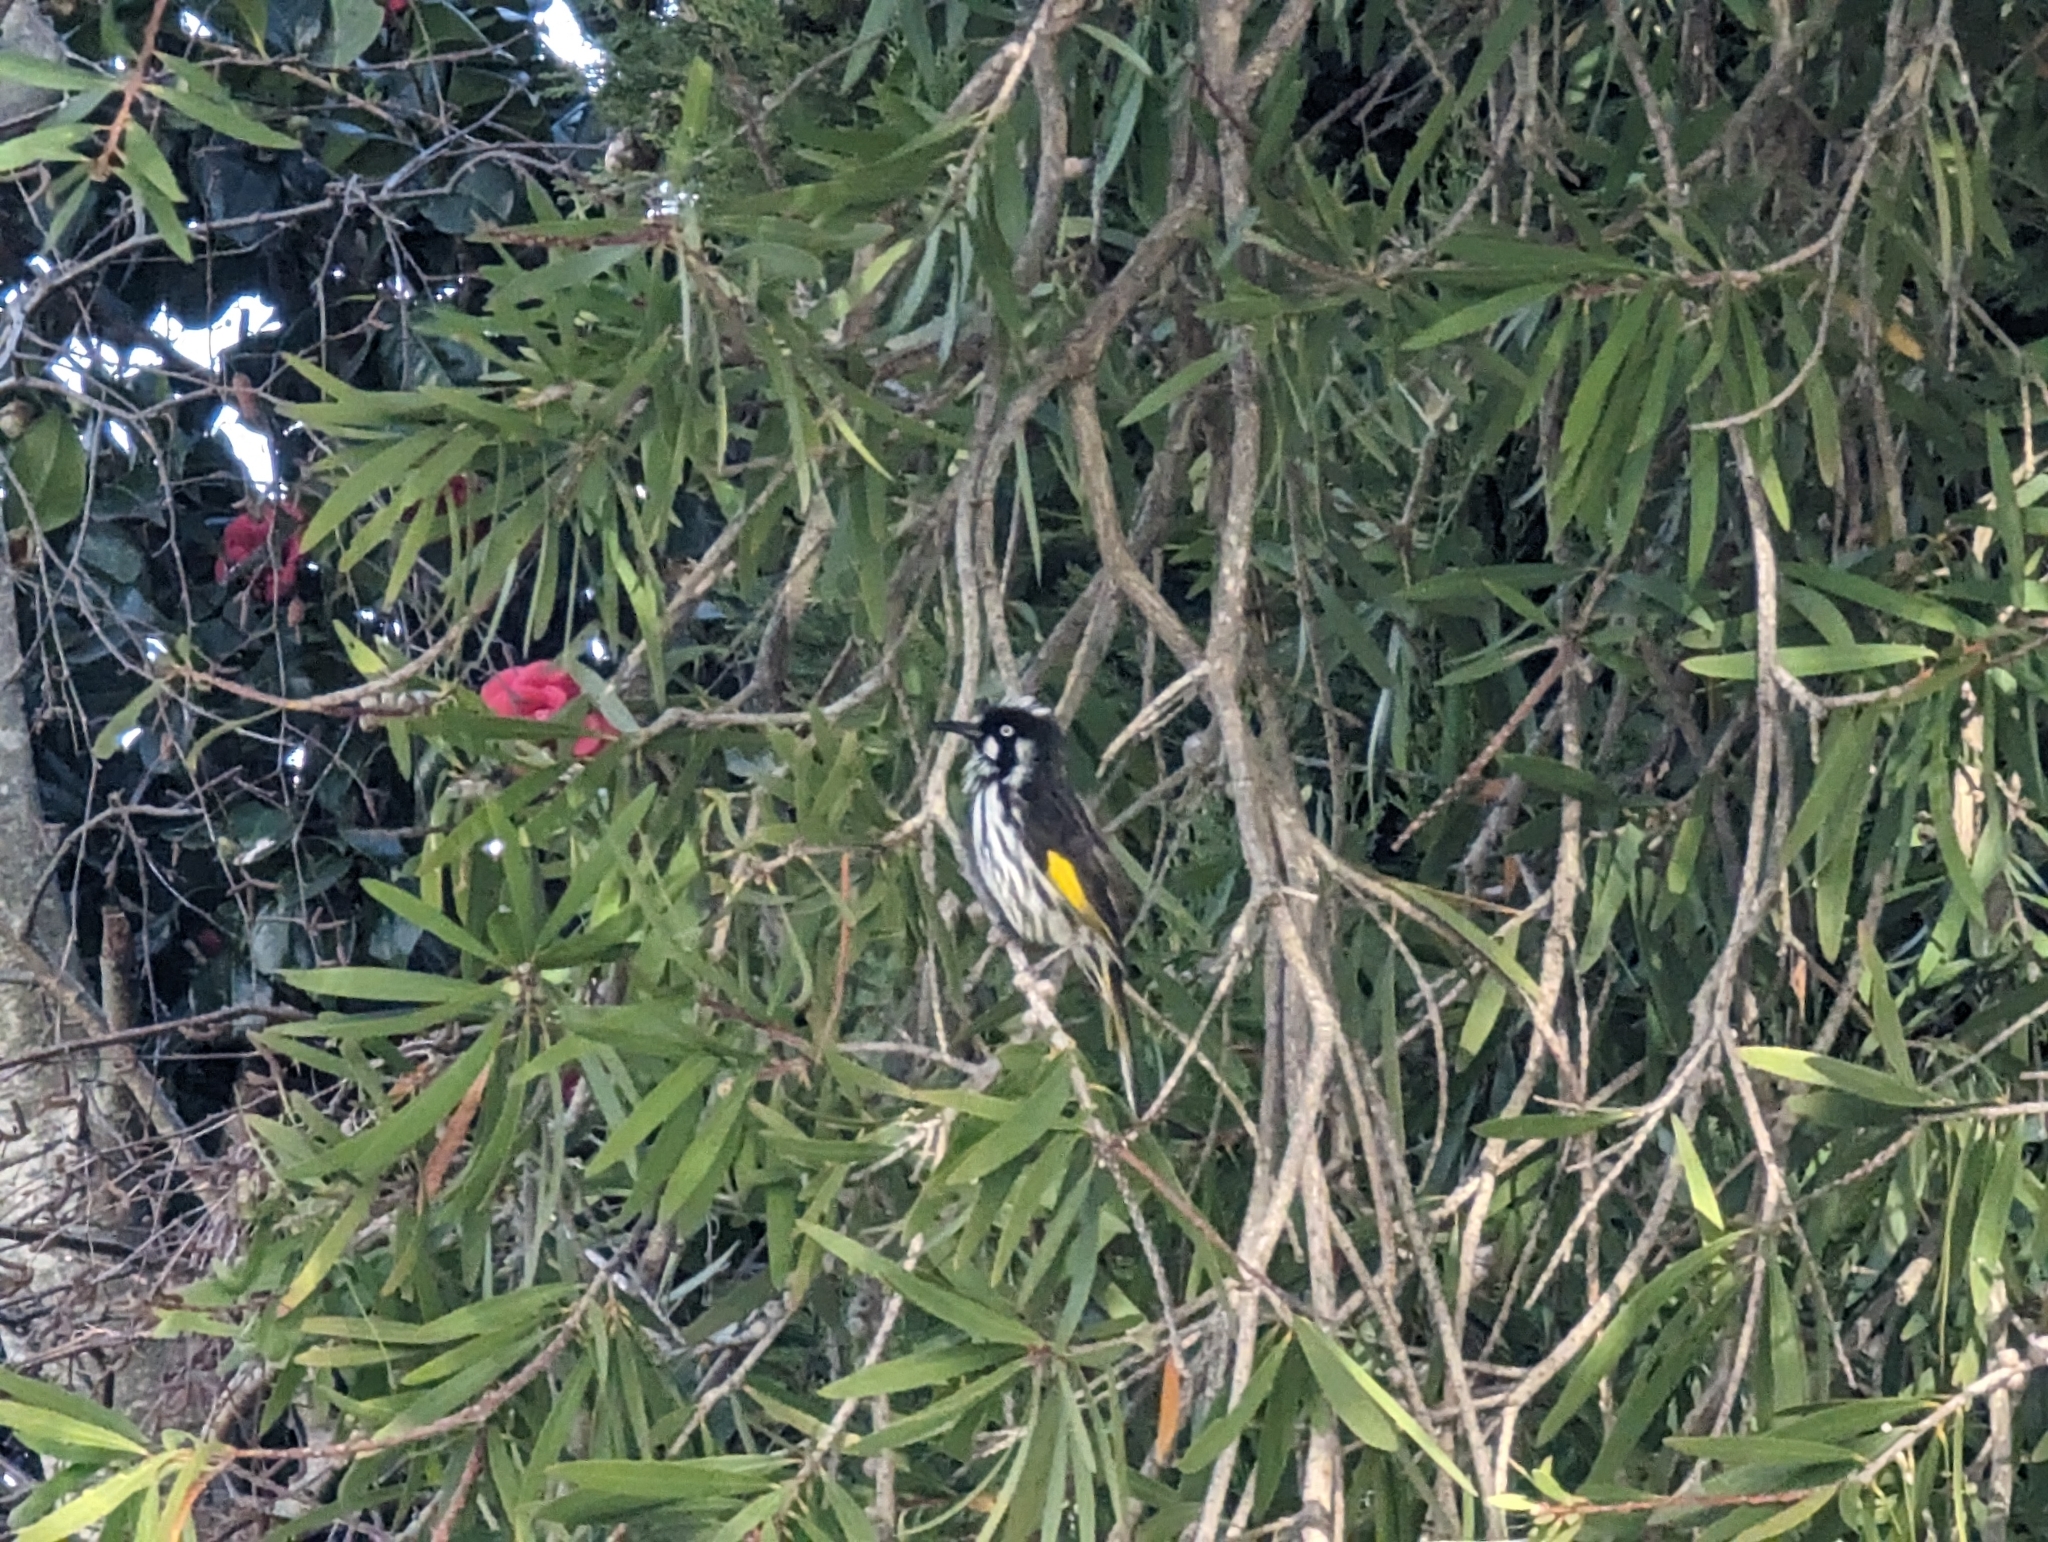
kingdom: Animalia
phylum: Chordata
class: Aves
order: Passeriformes
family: Meliphagidae
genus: Phylidonyris
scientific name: Phylidonyris novaehollandiae
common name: New holland honeyeater
